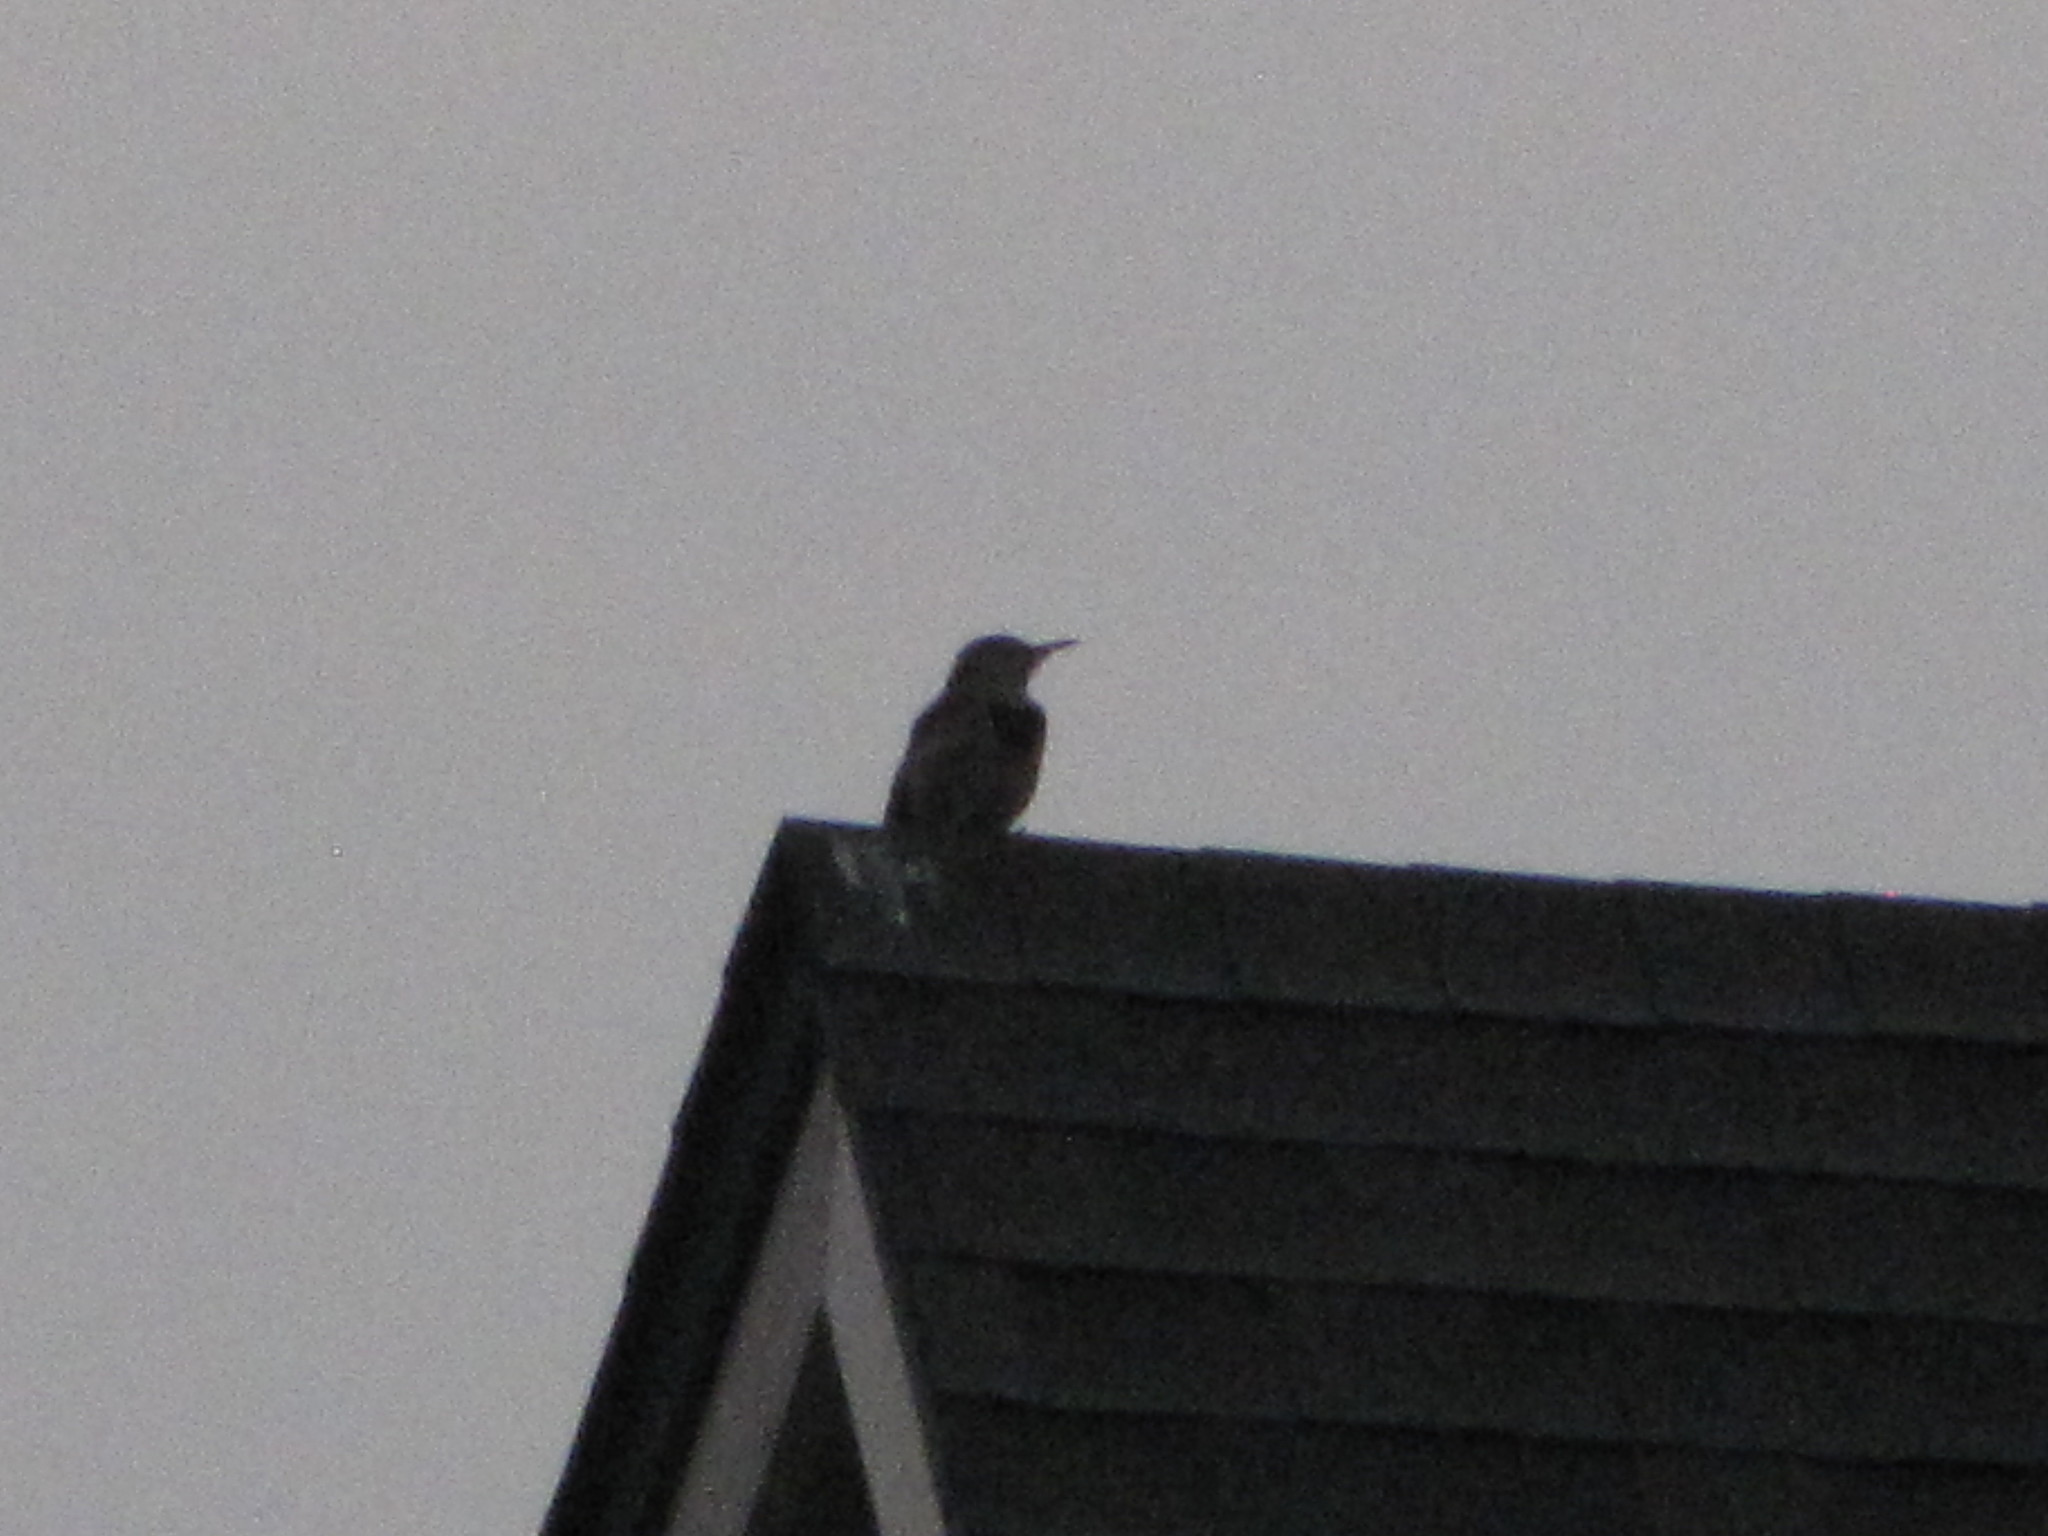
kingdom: Animalia
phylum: Chordata
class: Aves
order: Piciformes
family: Picidae
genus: Colaptes
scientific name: Colaptes auratus
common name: Northern flicker
